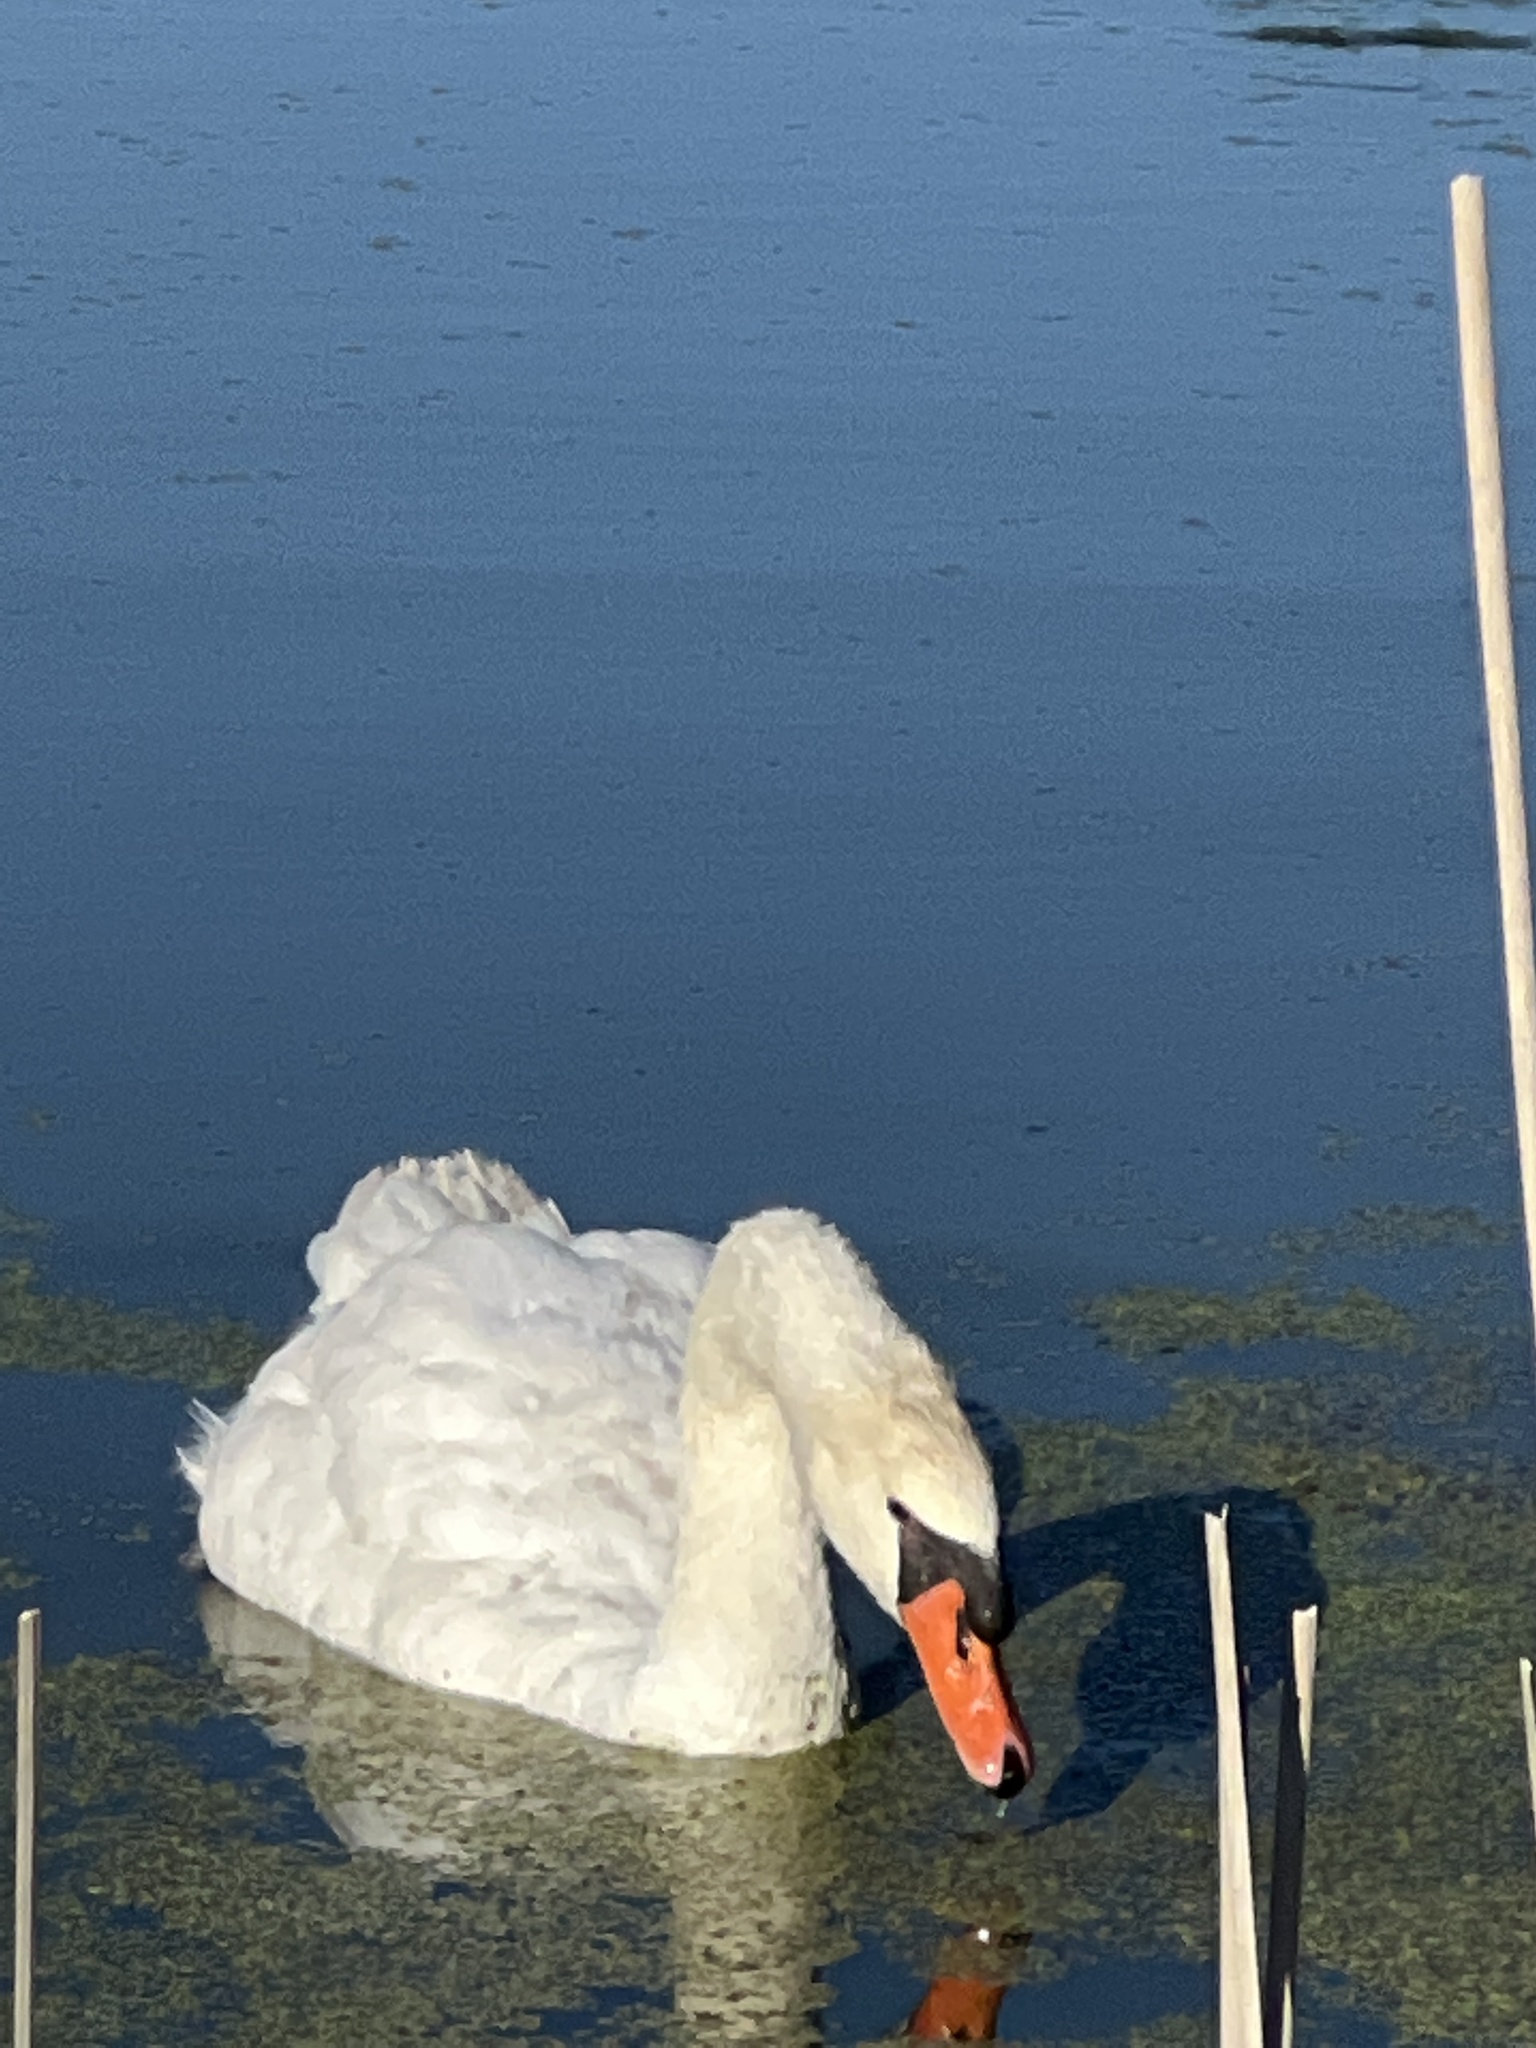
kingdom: Animalia
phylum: Chordata
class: Aves
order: Anseriformes
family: Anatidae
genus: Cygnus
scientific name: Cygnus olor
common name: Mute swan
